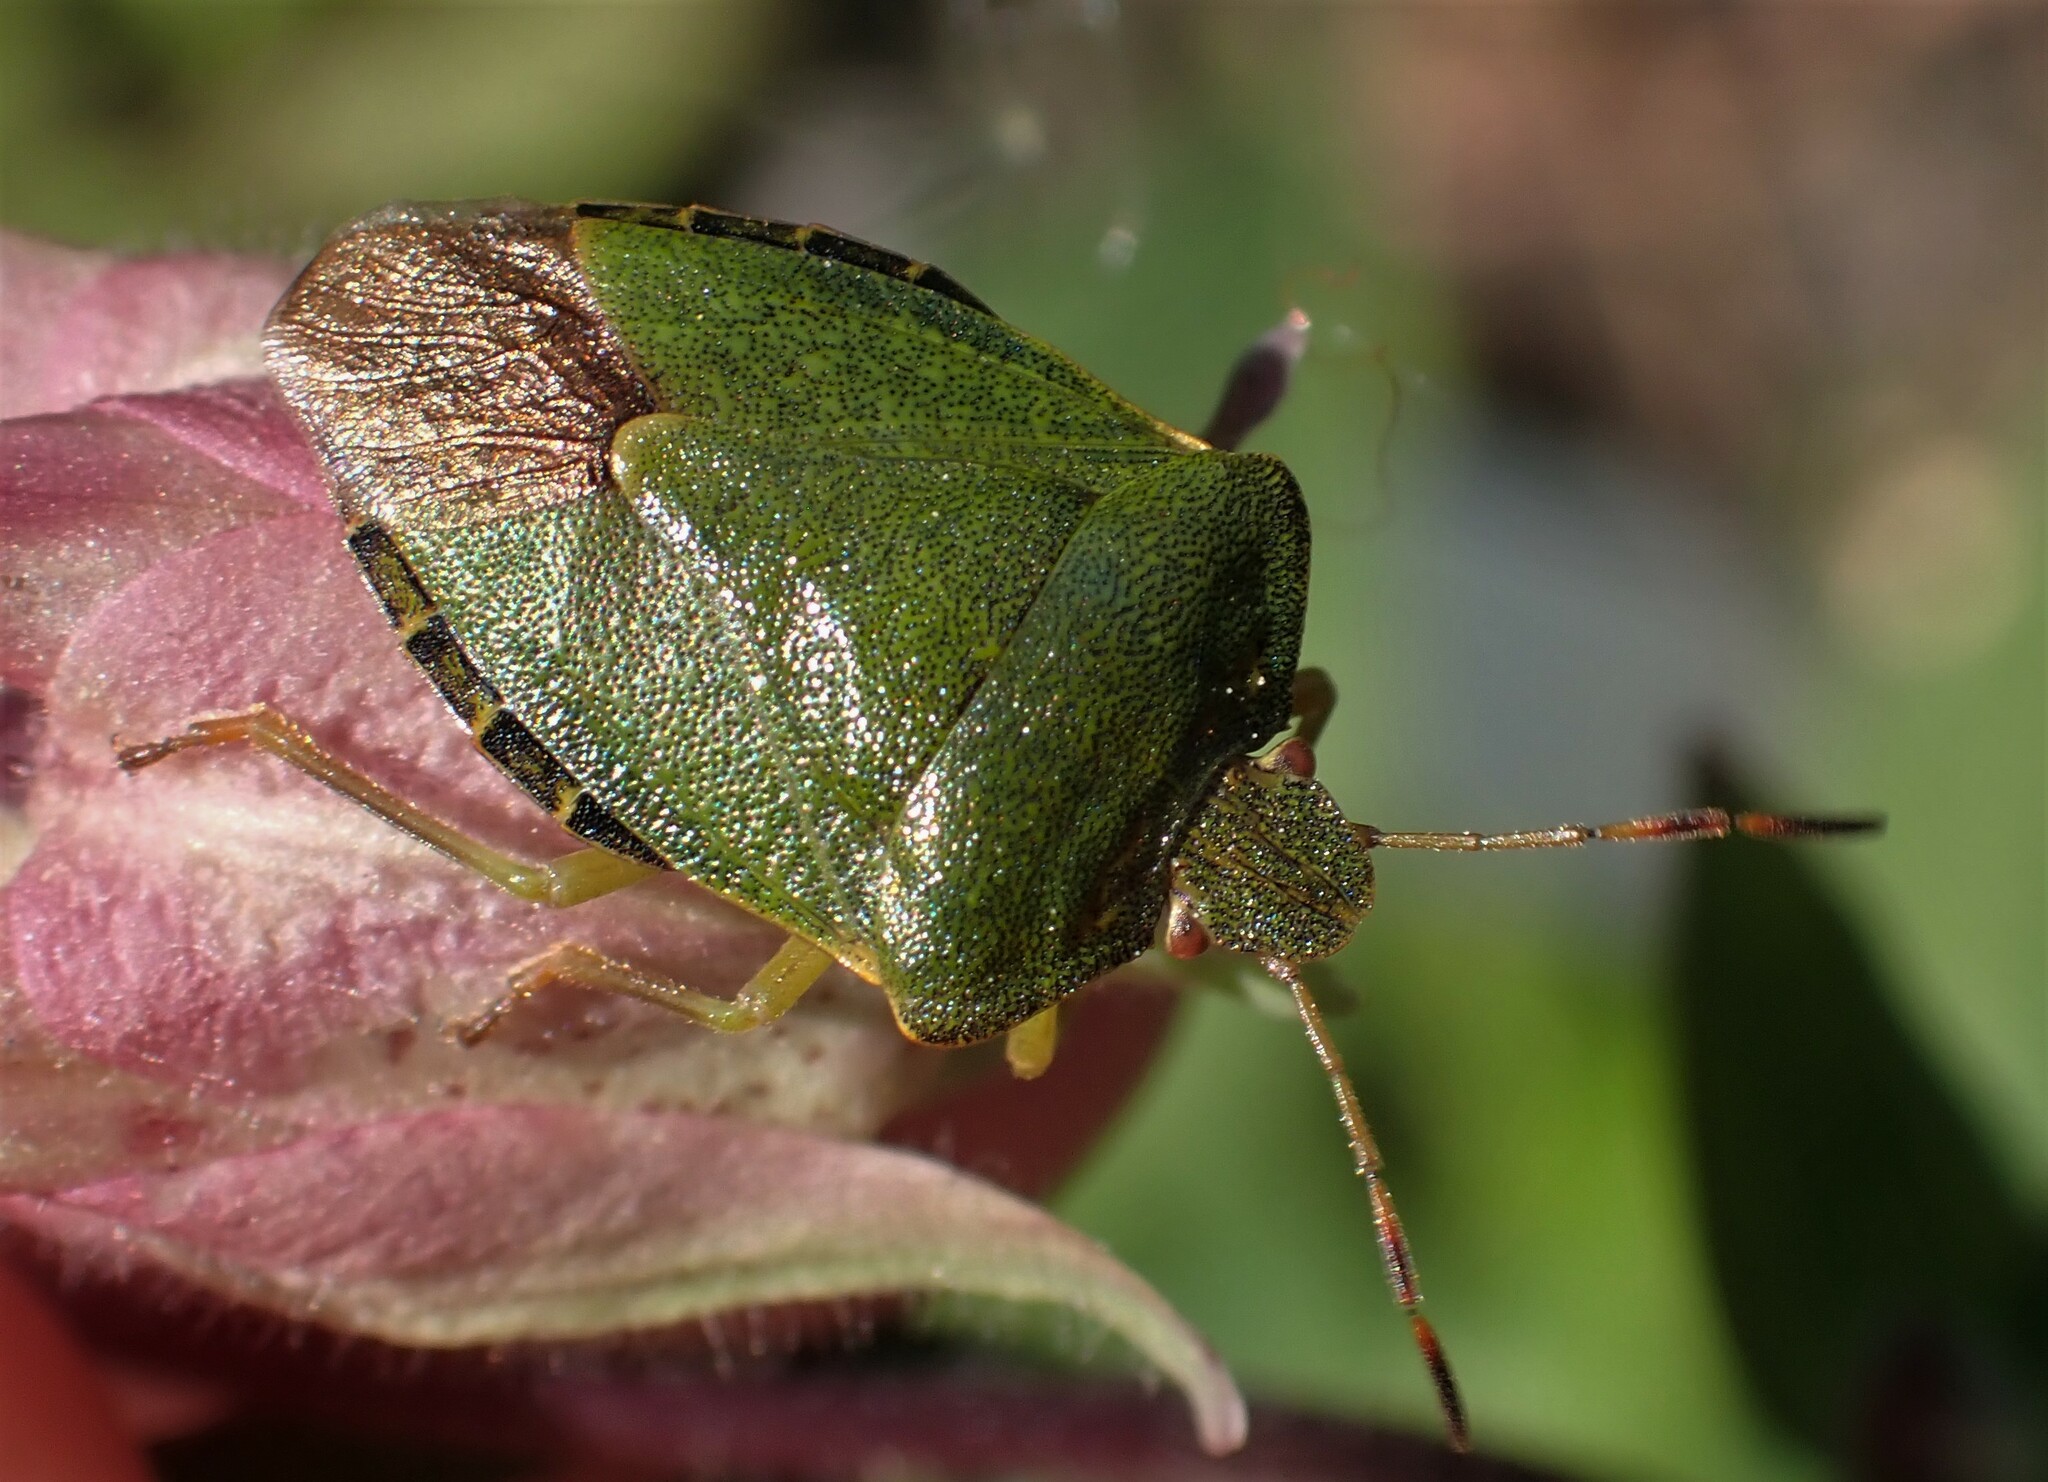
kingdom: Animalia
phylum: Arthropoda
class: Insecta
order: Hemiptera
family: Pentatomidae
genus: Palomena
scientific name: Palomena prasina
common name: Green shieldbug
